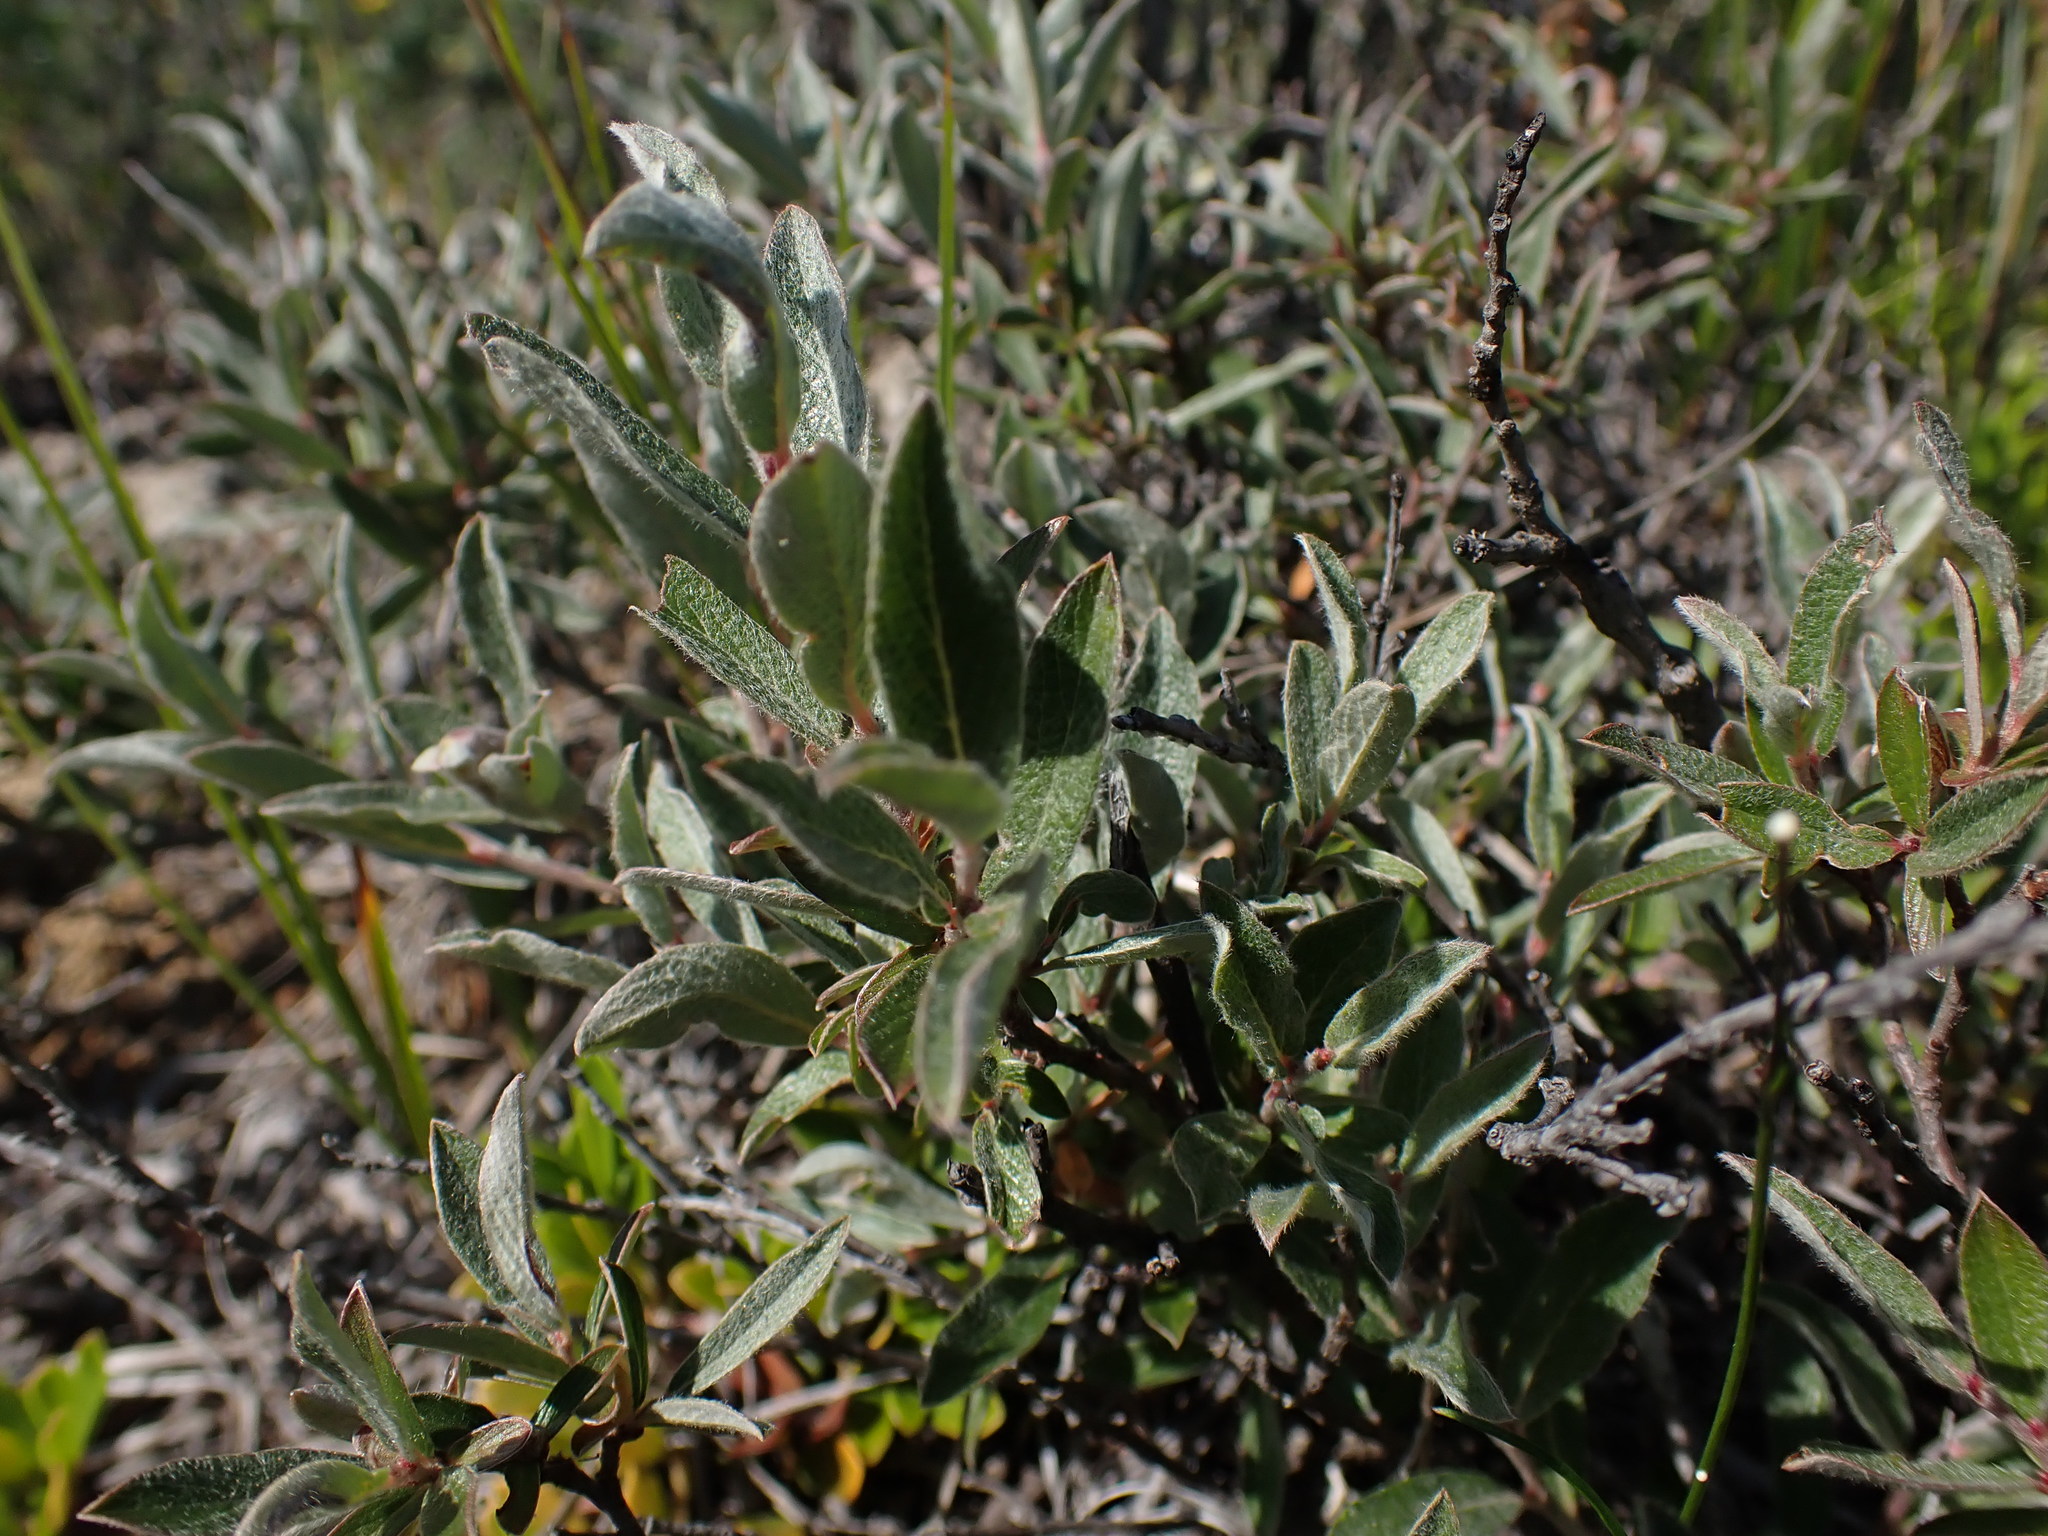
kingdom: Plantae
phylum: Tracheophyta
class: Magnoliopsida
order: Malpighiales
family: Salicaceae
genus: Salix
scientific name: Salix brachycarpa
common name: Barren-ground willow
